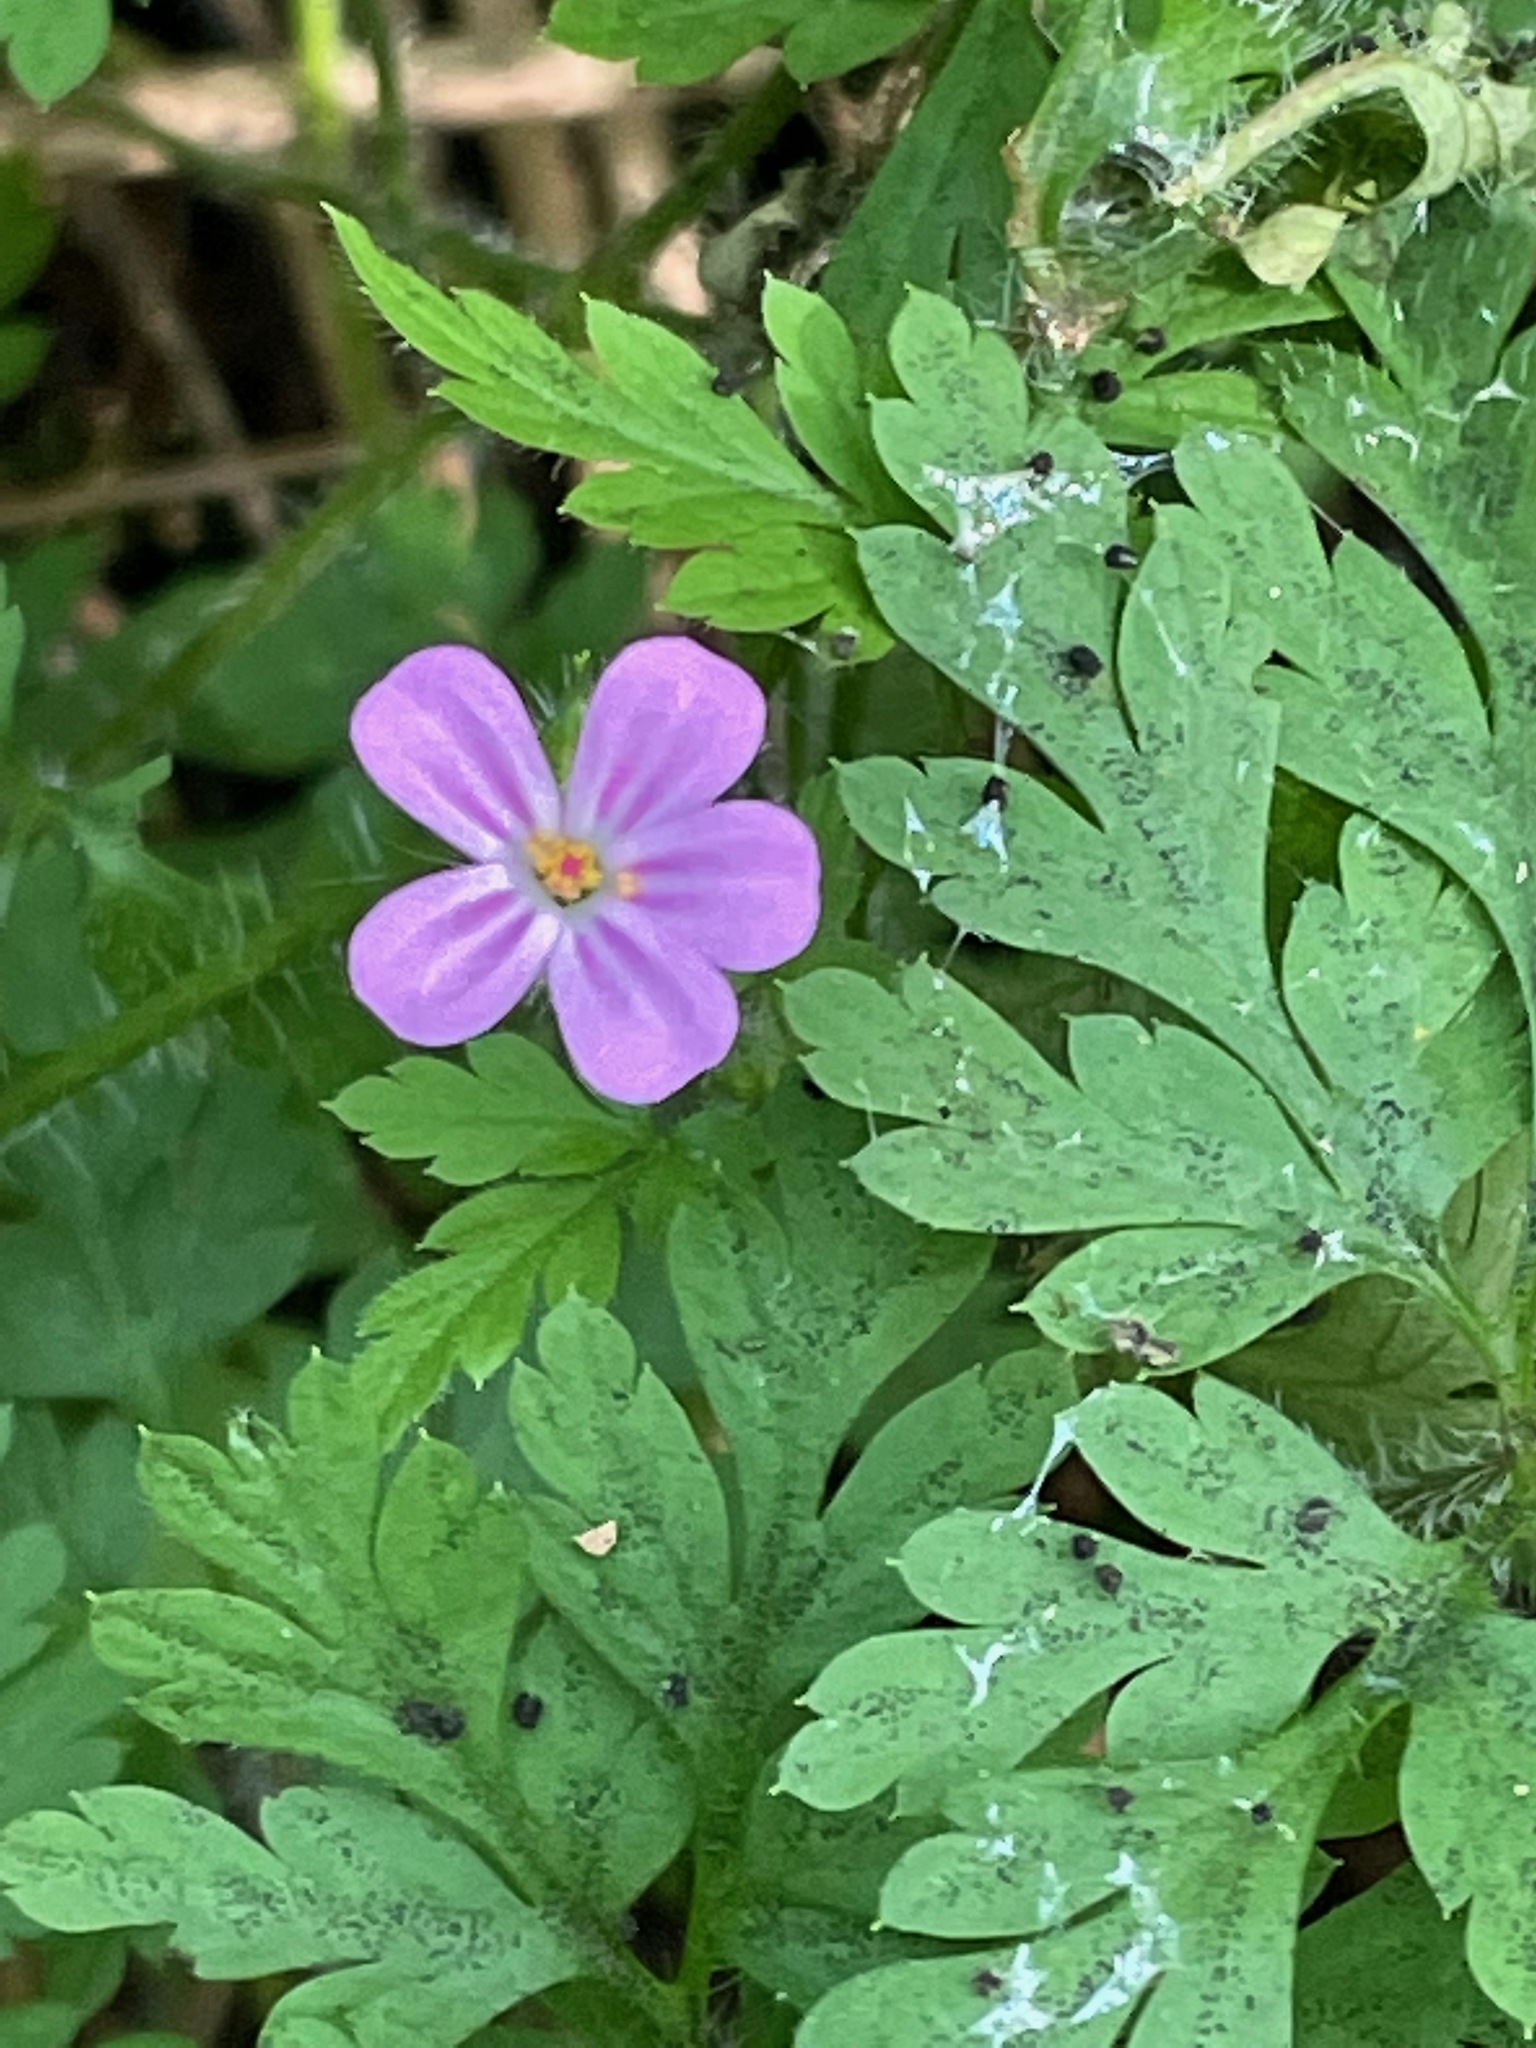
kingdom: Plantae
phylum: Tracheophyta
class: Magnoliopsida
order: Geraniales
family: Geraniaceae
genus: Geranium
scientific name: Geranium robertianum
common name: Herb-robert
